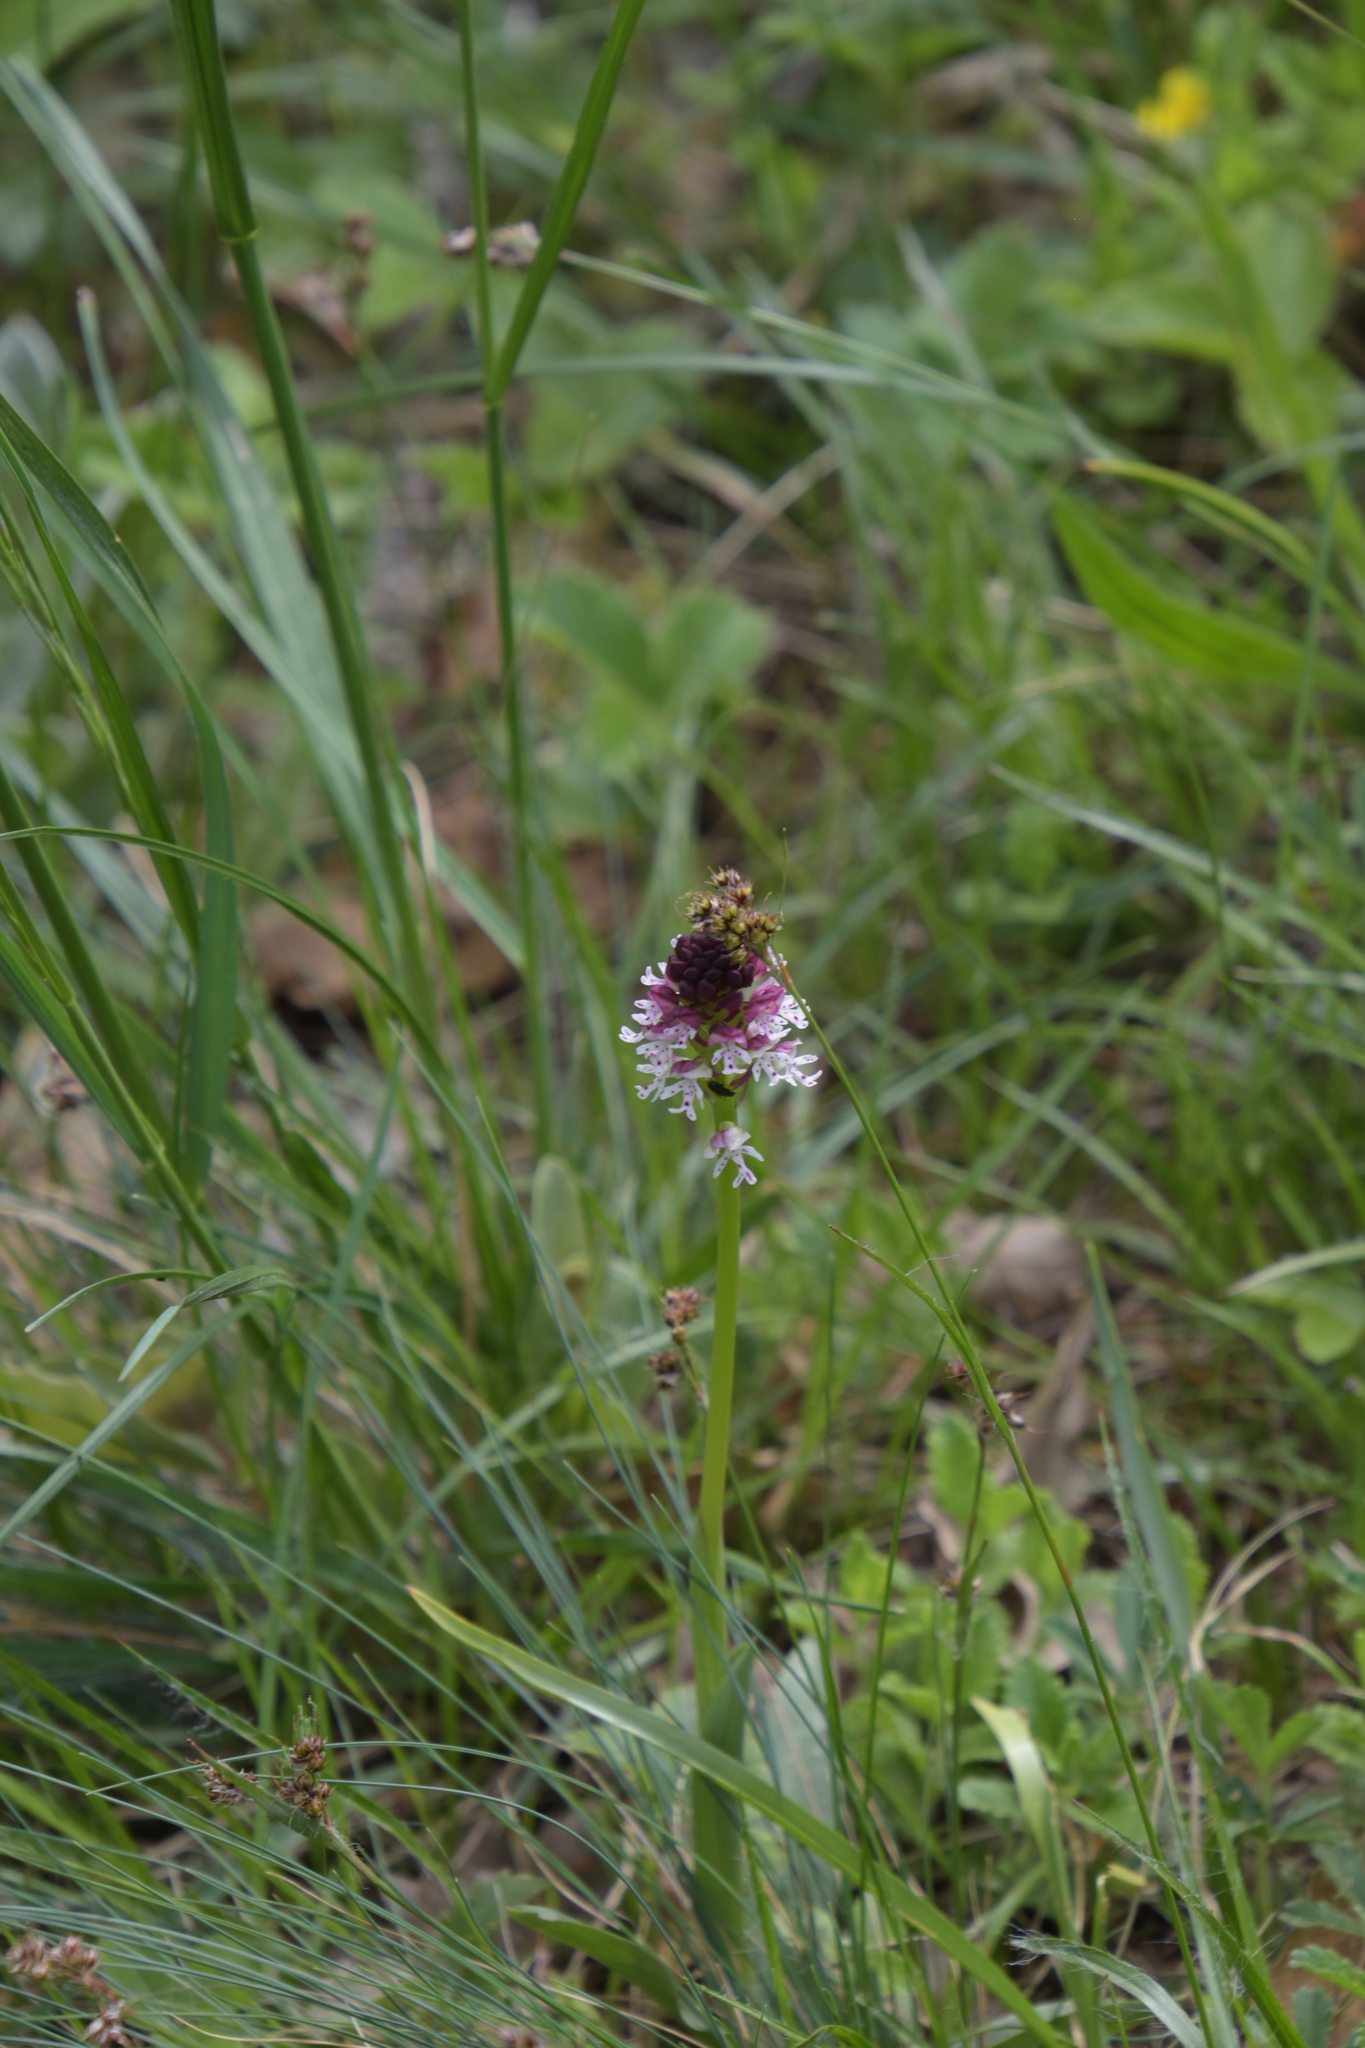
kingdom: Plantae
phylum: Tracheophyta
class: Liliopsida
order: Asparagales
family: Orchidaceae
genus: Neotinea
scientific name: Neotinea ustulata
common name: Burnt orchid
